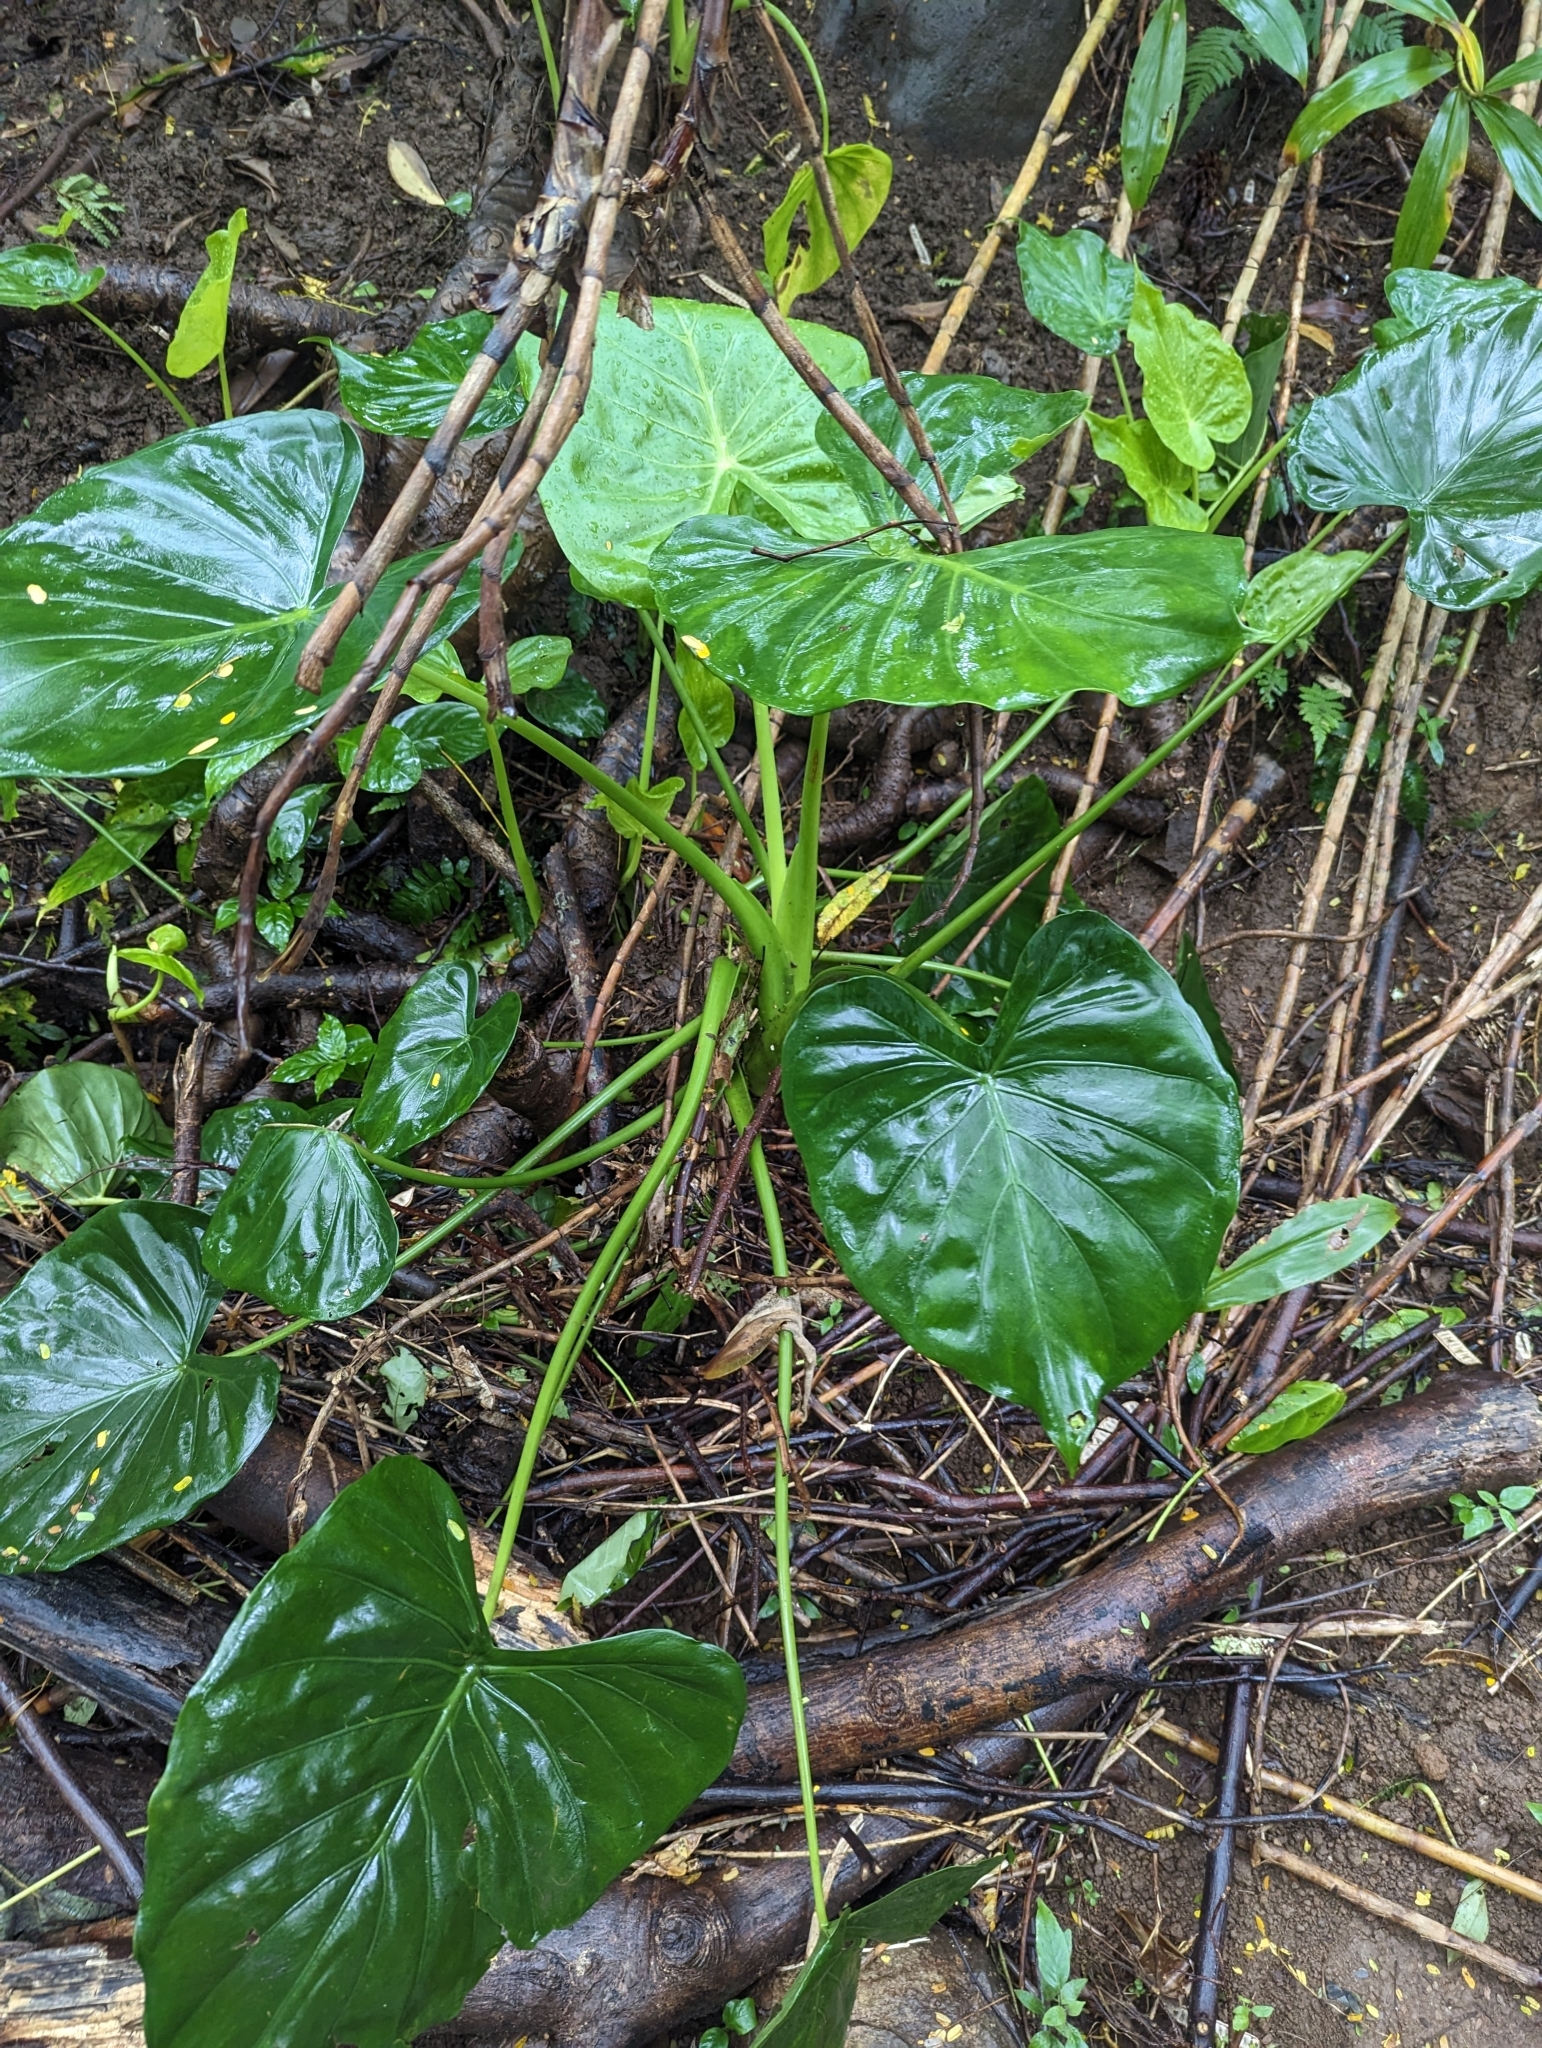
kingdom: Plantae
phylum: Tracheophyta
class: Liliopsida
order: Alismatales
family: Araceae
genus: Alocasia
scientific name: Alocasia cucullata
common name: Buddha's hand
